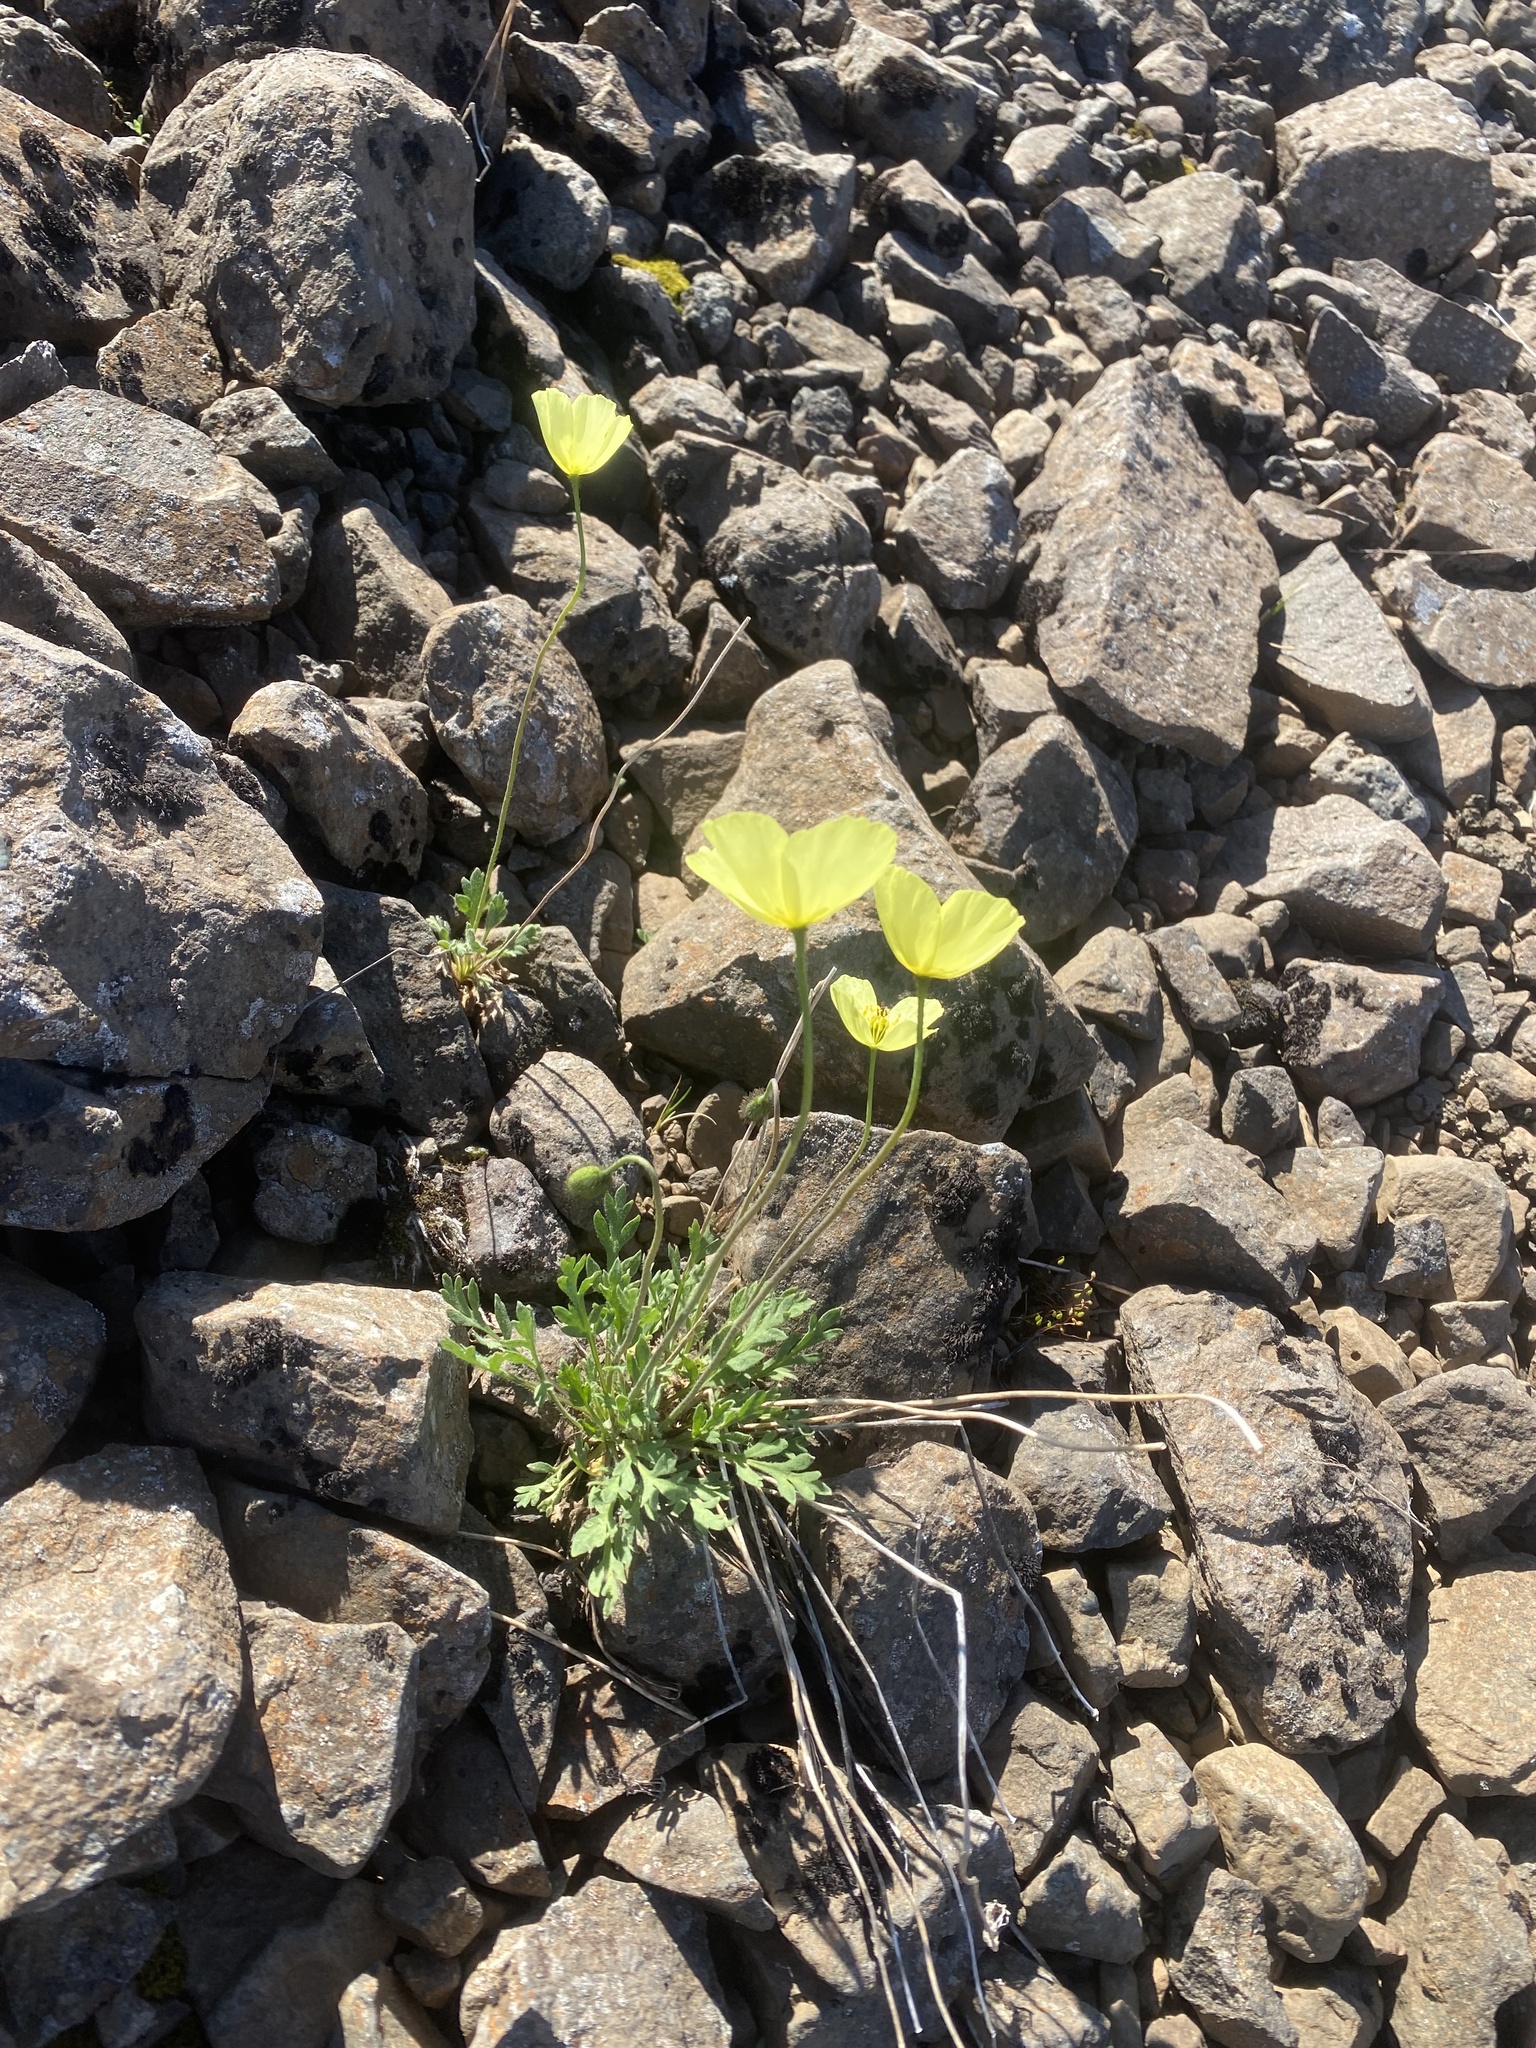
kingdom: Plantae
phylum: Tracheophyta
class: Magnoliopsida
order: Ranunculales
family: Papaveraceae
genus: Papaver
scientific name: Papaver variegatum
